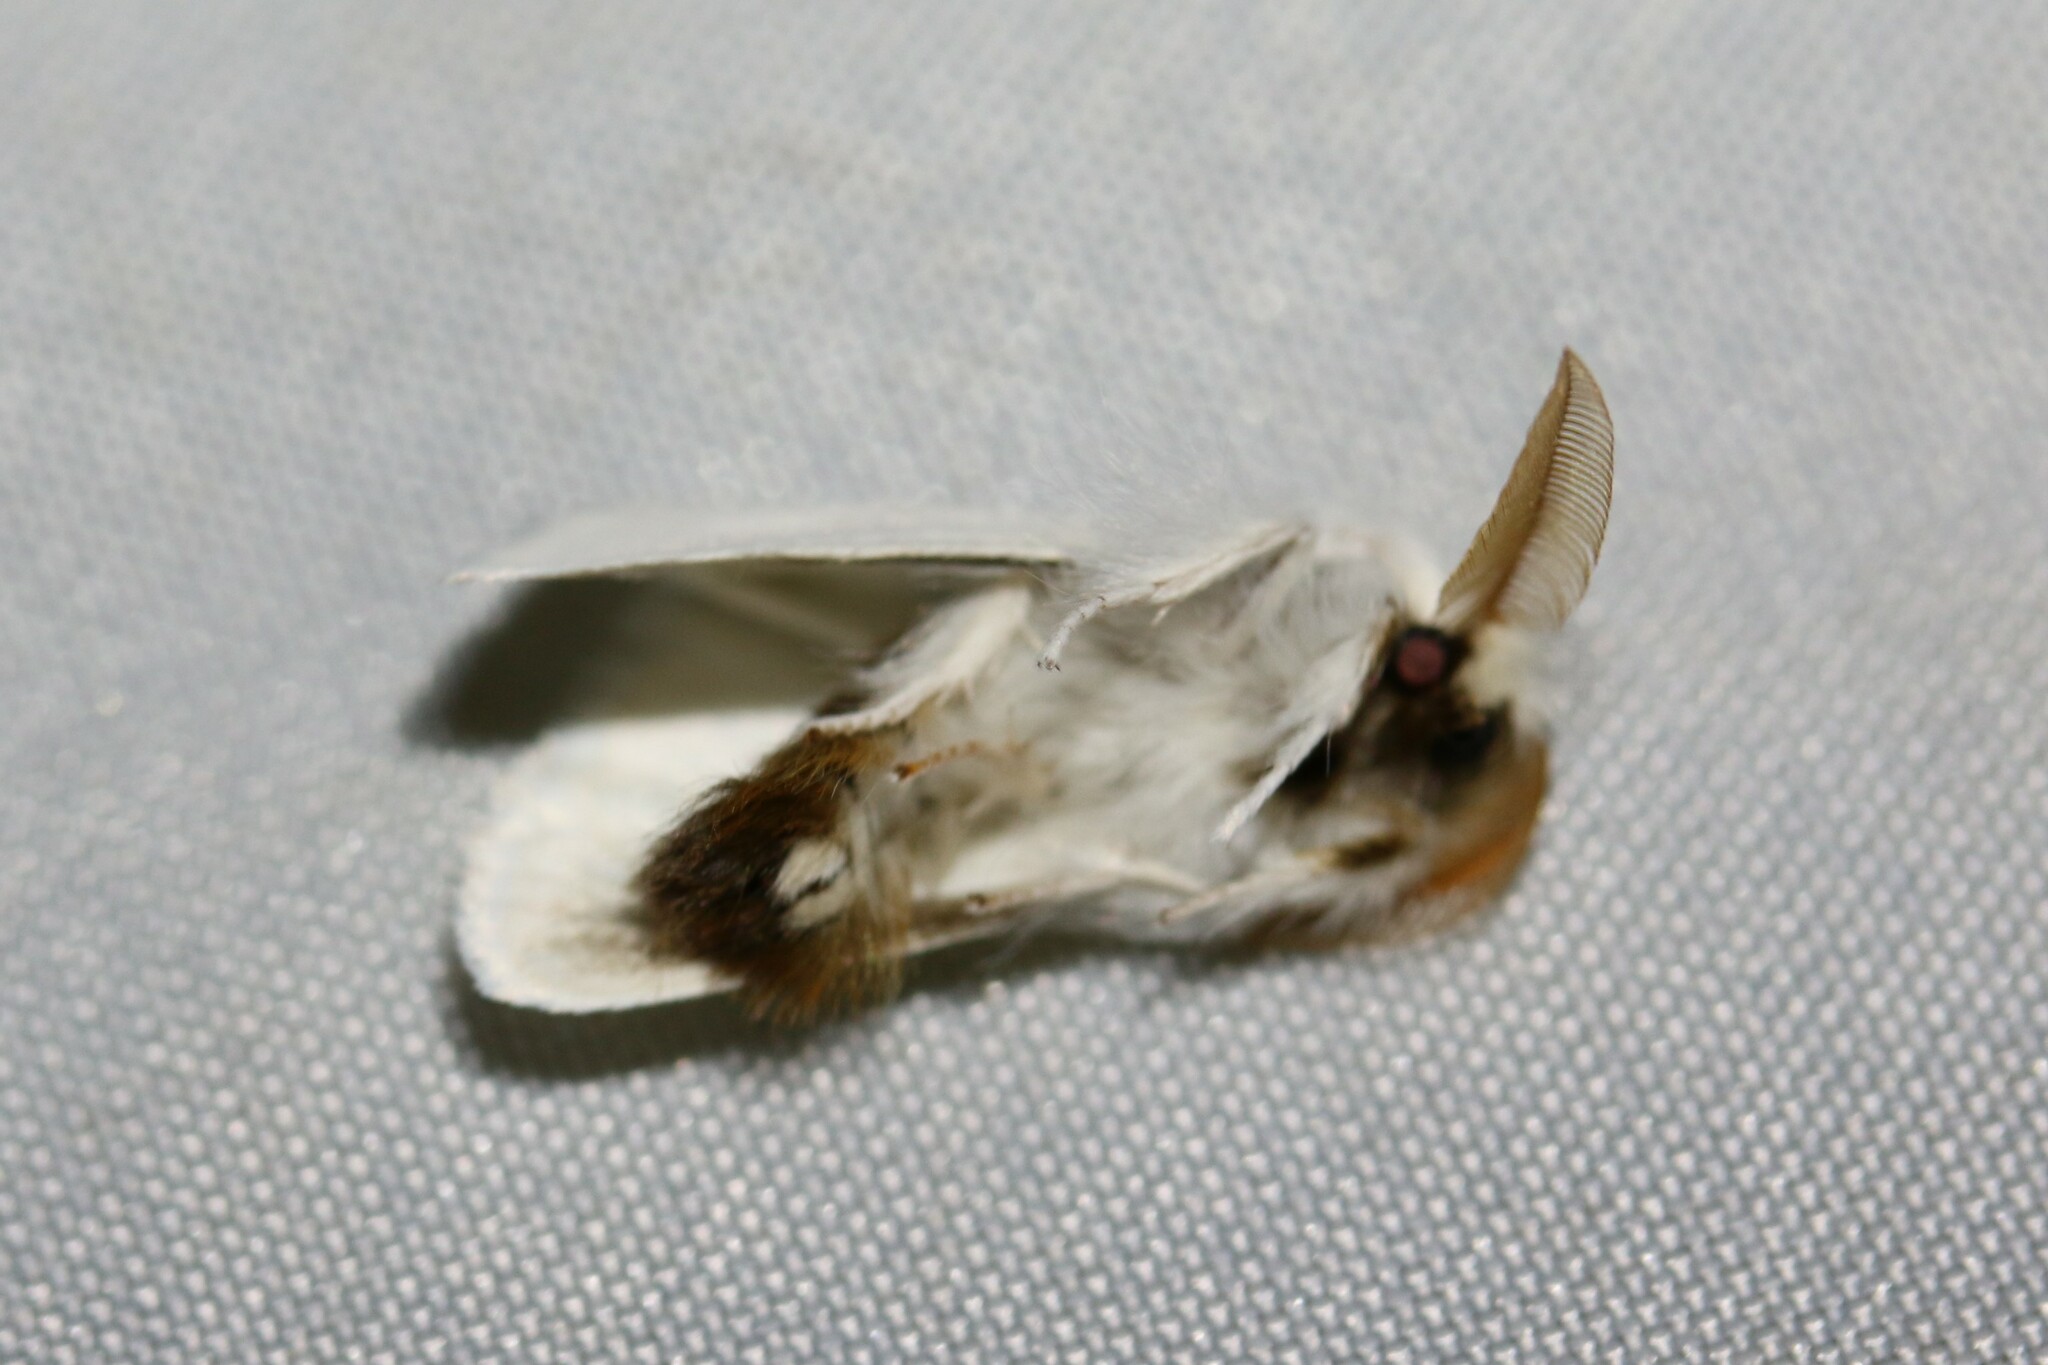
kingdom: Animalia
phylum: Arthropoda
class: Insecta
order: Lepidoptera
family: Erebidae
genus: Euproctis
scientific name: Euproctis chrysorrhoea
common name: Brown-tail
